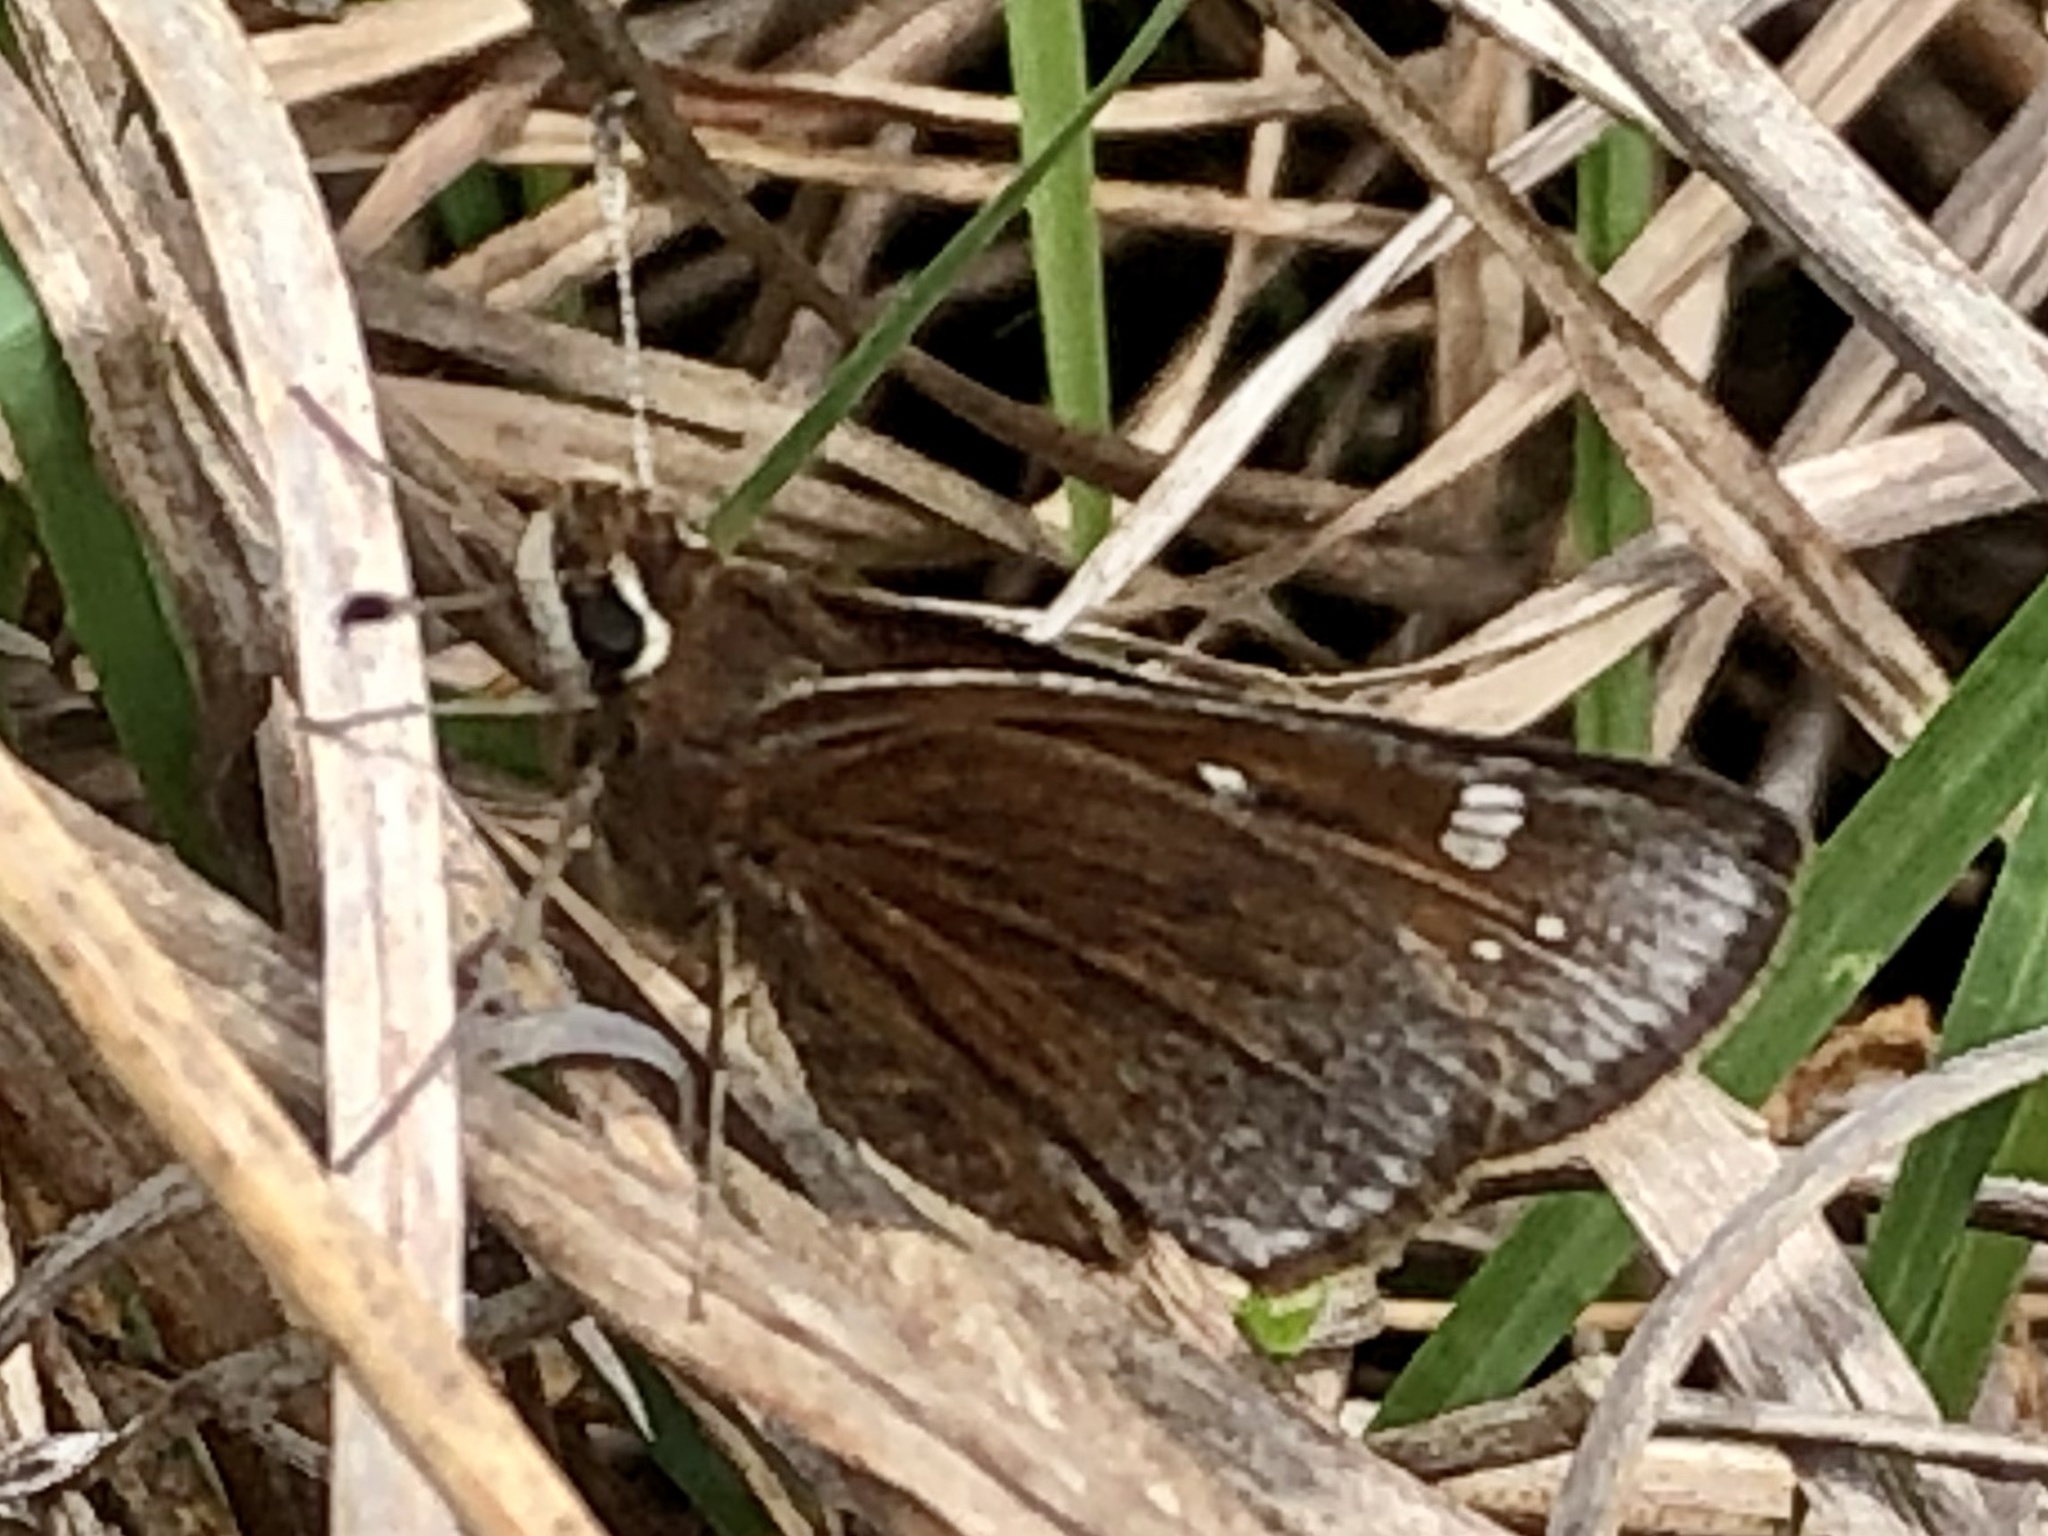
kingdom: Animalia
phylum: Arthropoda
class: Insecta
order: Lepidoptera
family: Hesperiidae
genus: Atrytonopsis
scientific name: Atrytonopsis hianna
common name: Dusted skipper
